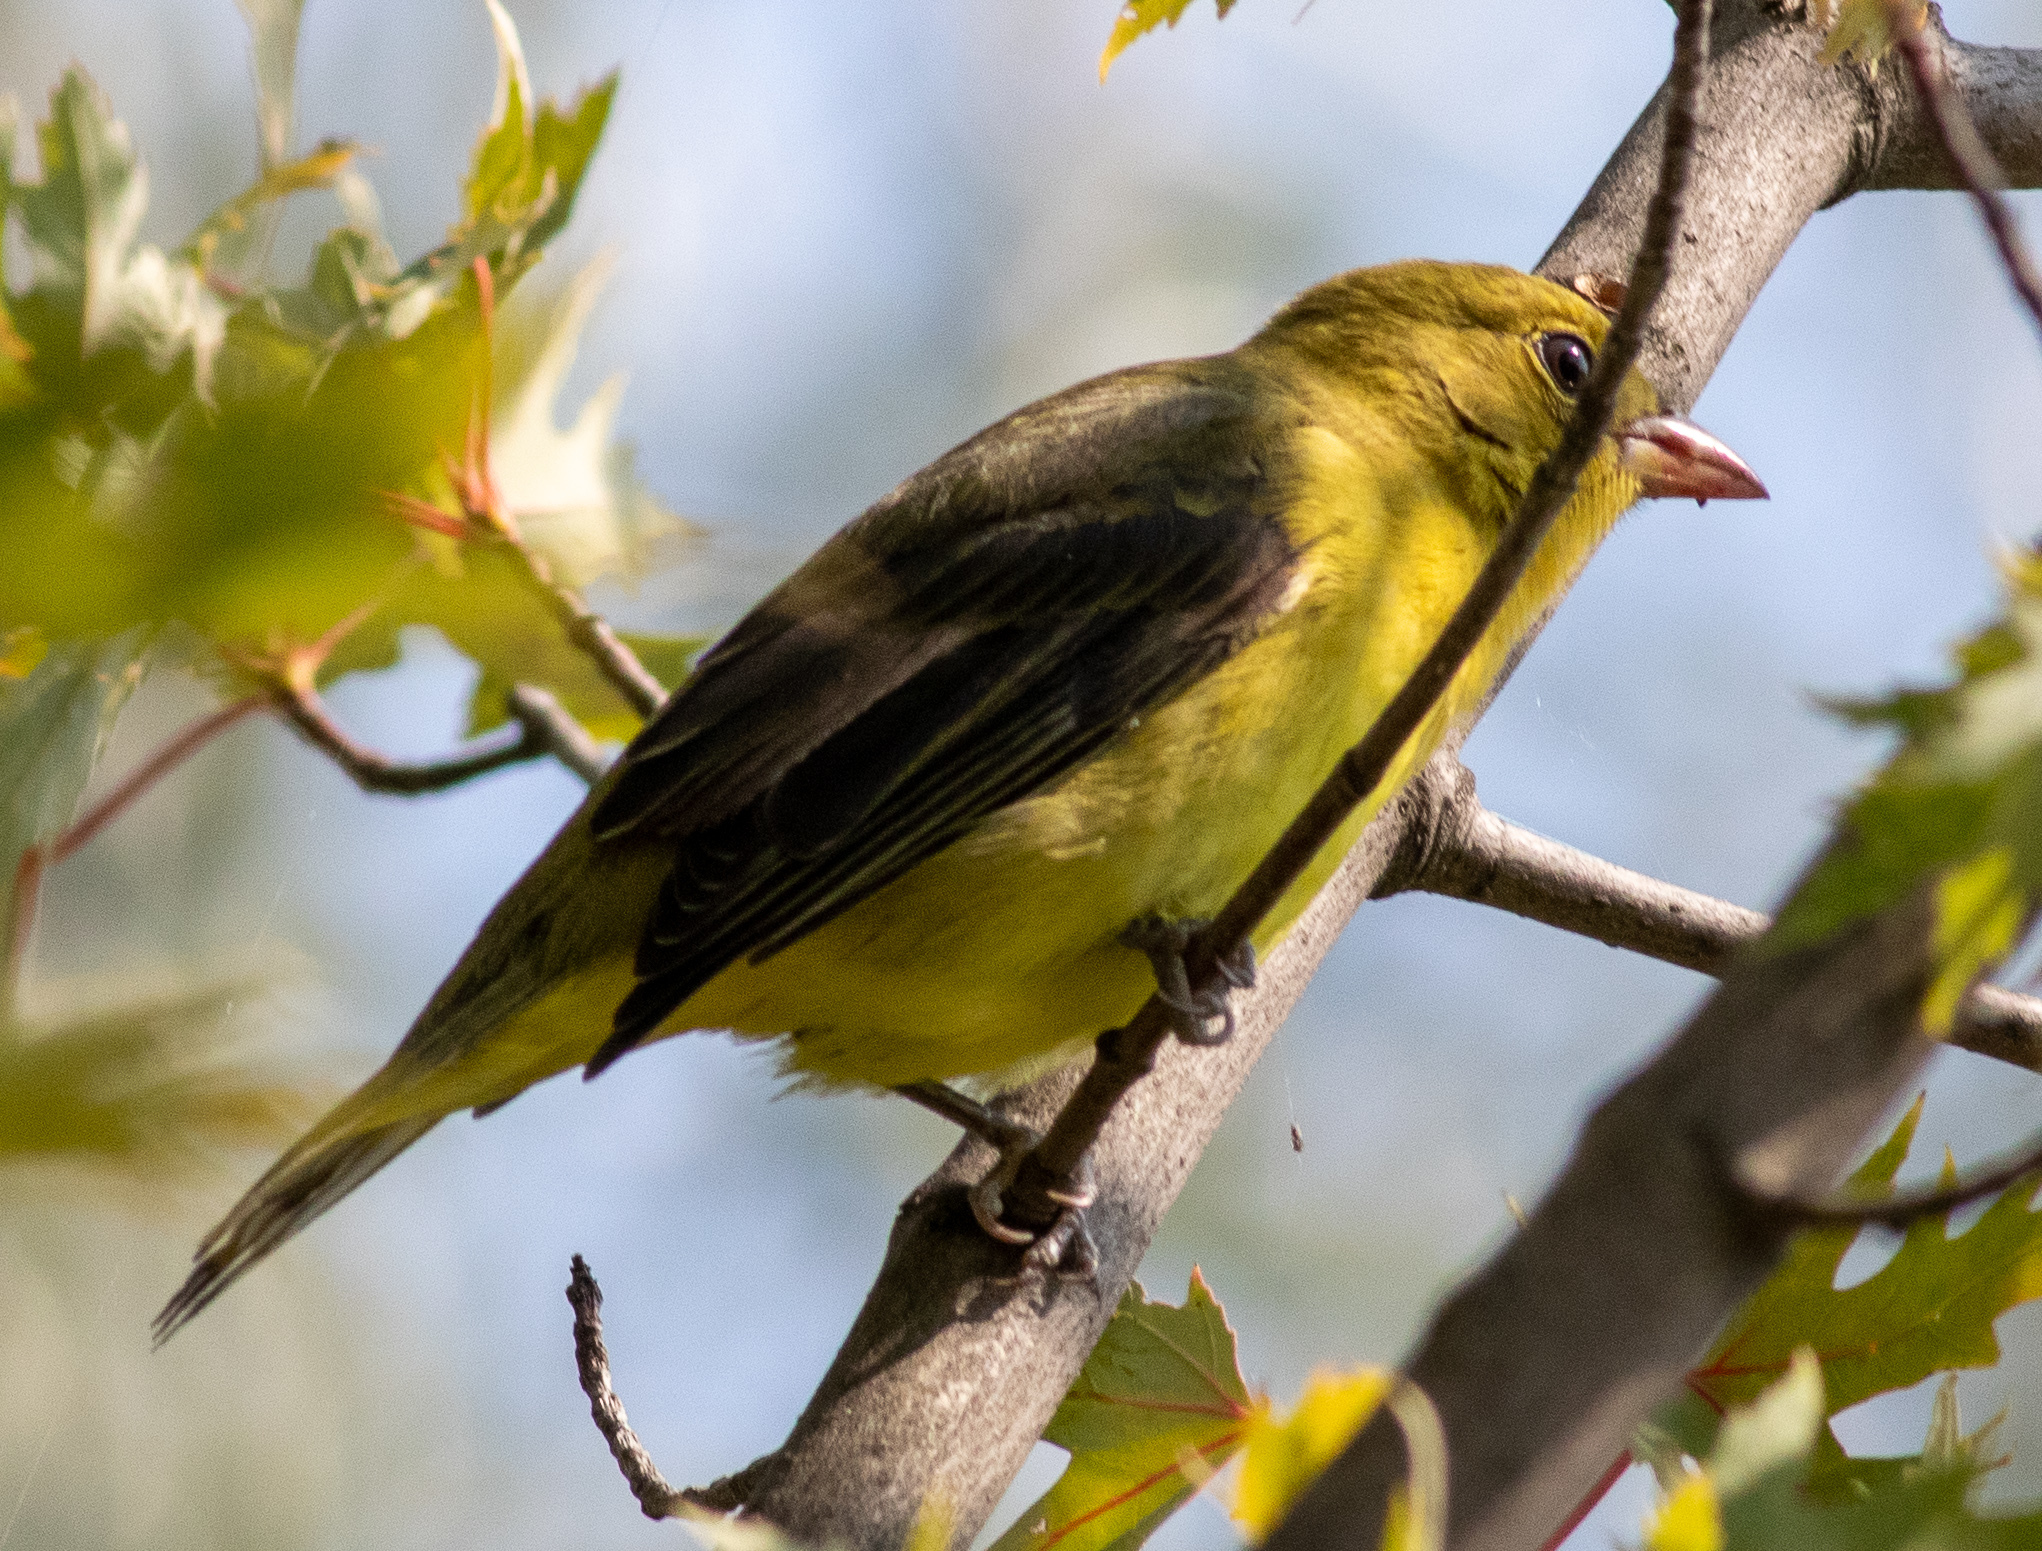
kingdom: Animalia
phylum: Chordata
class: Aves
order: Passeriformes
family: Cardinalidae
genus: Piranga
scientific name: Piranga olivacea
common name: Scarlet tanager
